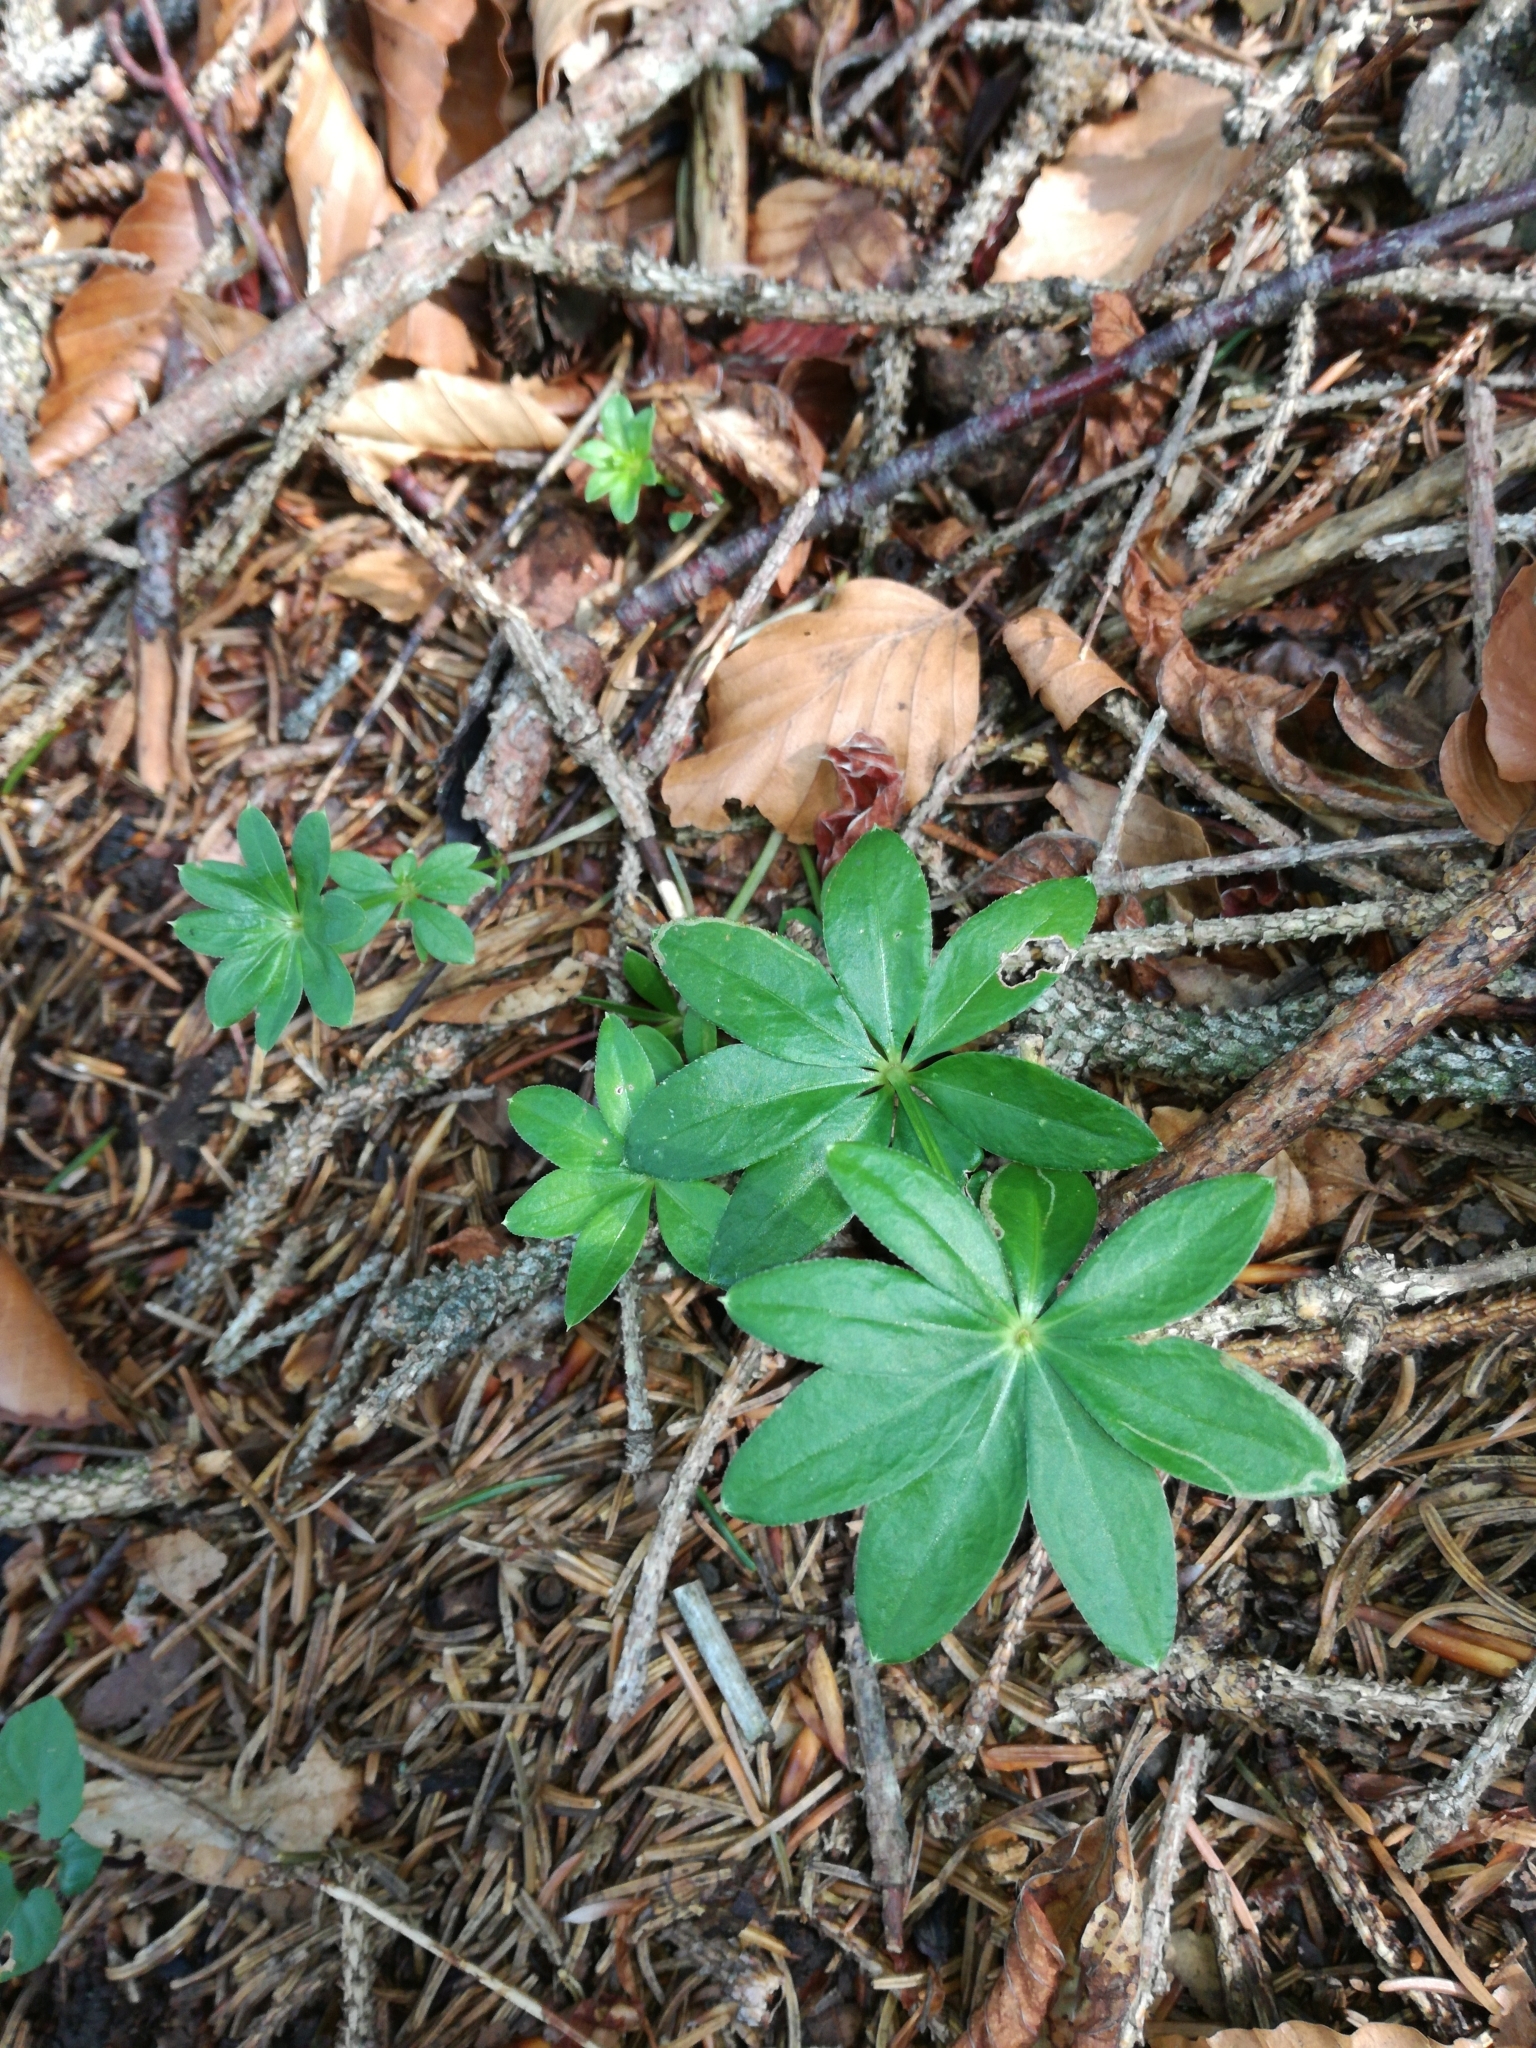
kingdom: Plantae
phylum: Tracheophyta
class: Magnoliopsida
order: Gentianales
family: Rubiaceae
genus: Galium
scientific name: Galium odoratum
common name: Sweet woodruff
